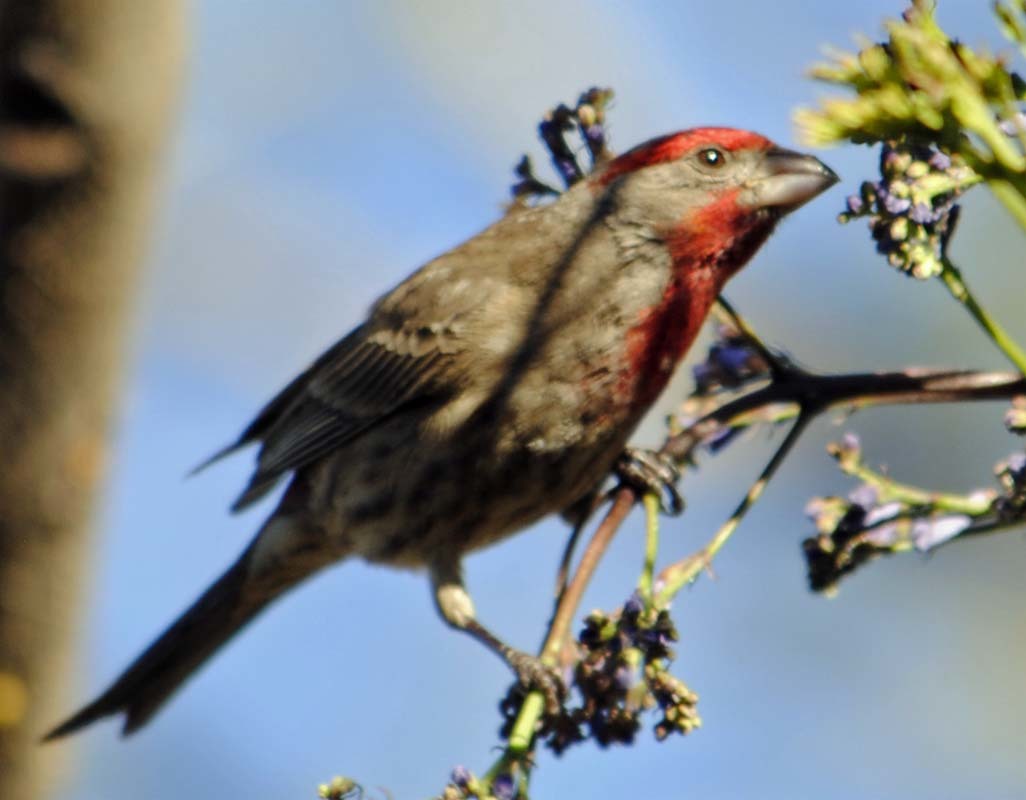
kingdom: Animalia
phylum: Chordata
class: Aves
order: Passeriformes
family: Fringillidae
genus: Haemorhous
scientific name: Haemorhous mexicanus
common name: House finch
